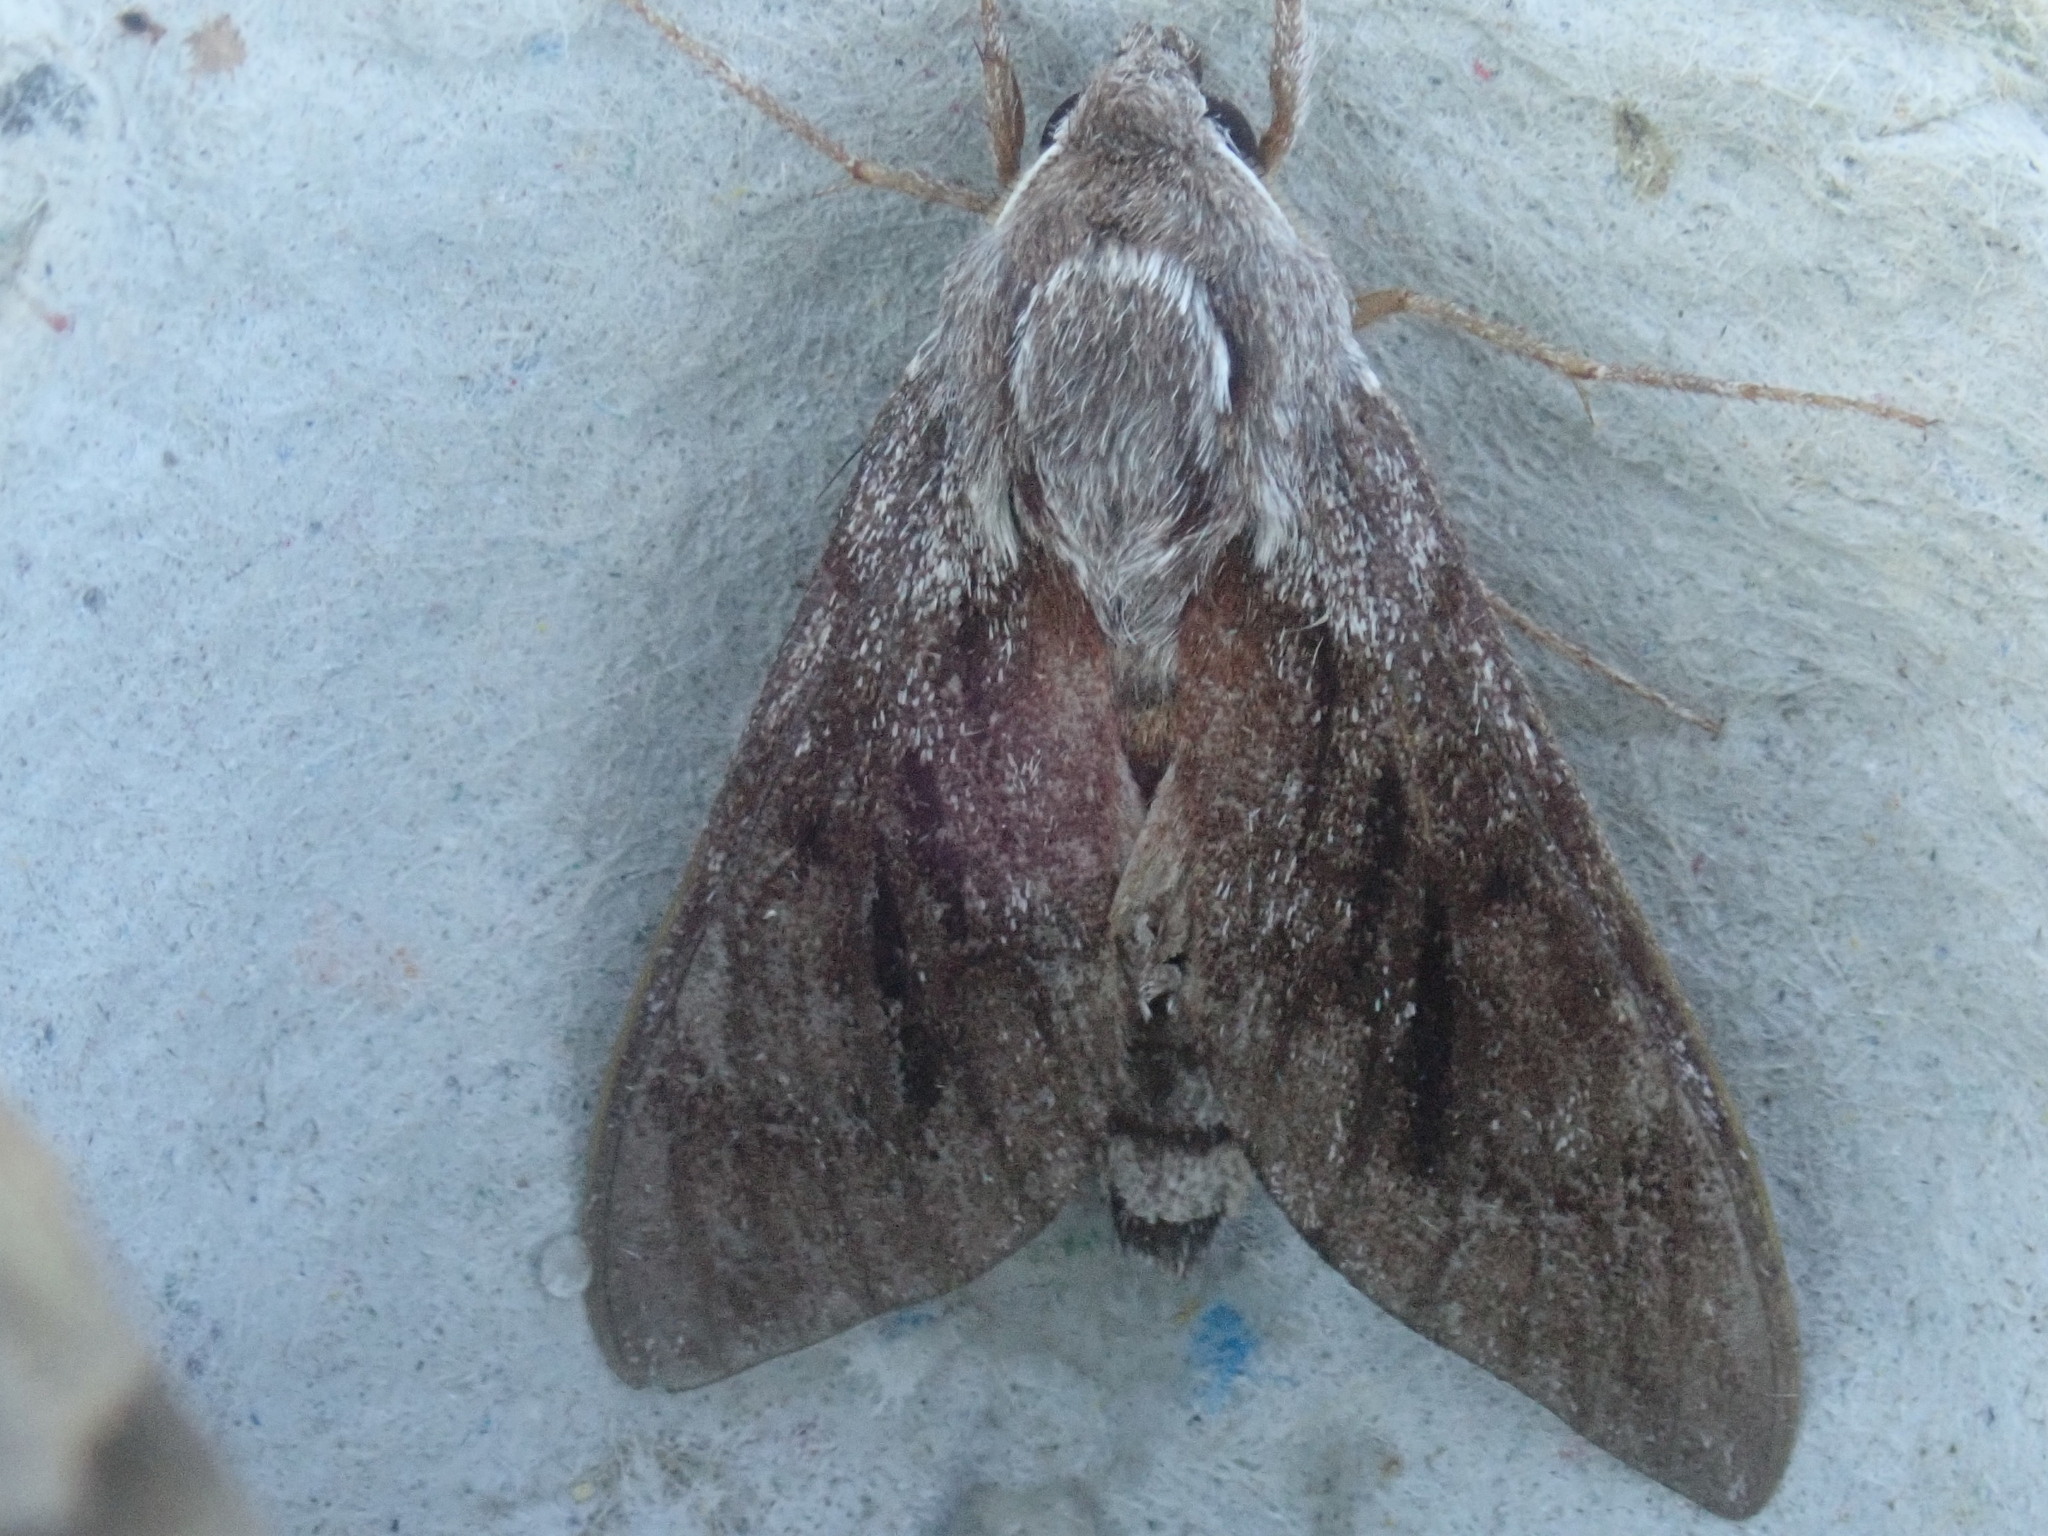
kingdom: Animalia
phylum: Arthropoda
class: Insecta
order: Lepidoptera
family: Sphingidae
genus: Lapara
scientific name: Lapara bombycoides
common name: Northern pine sphinx
